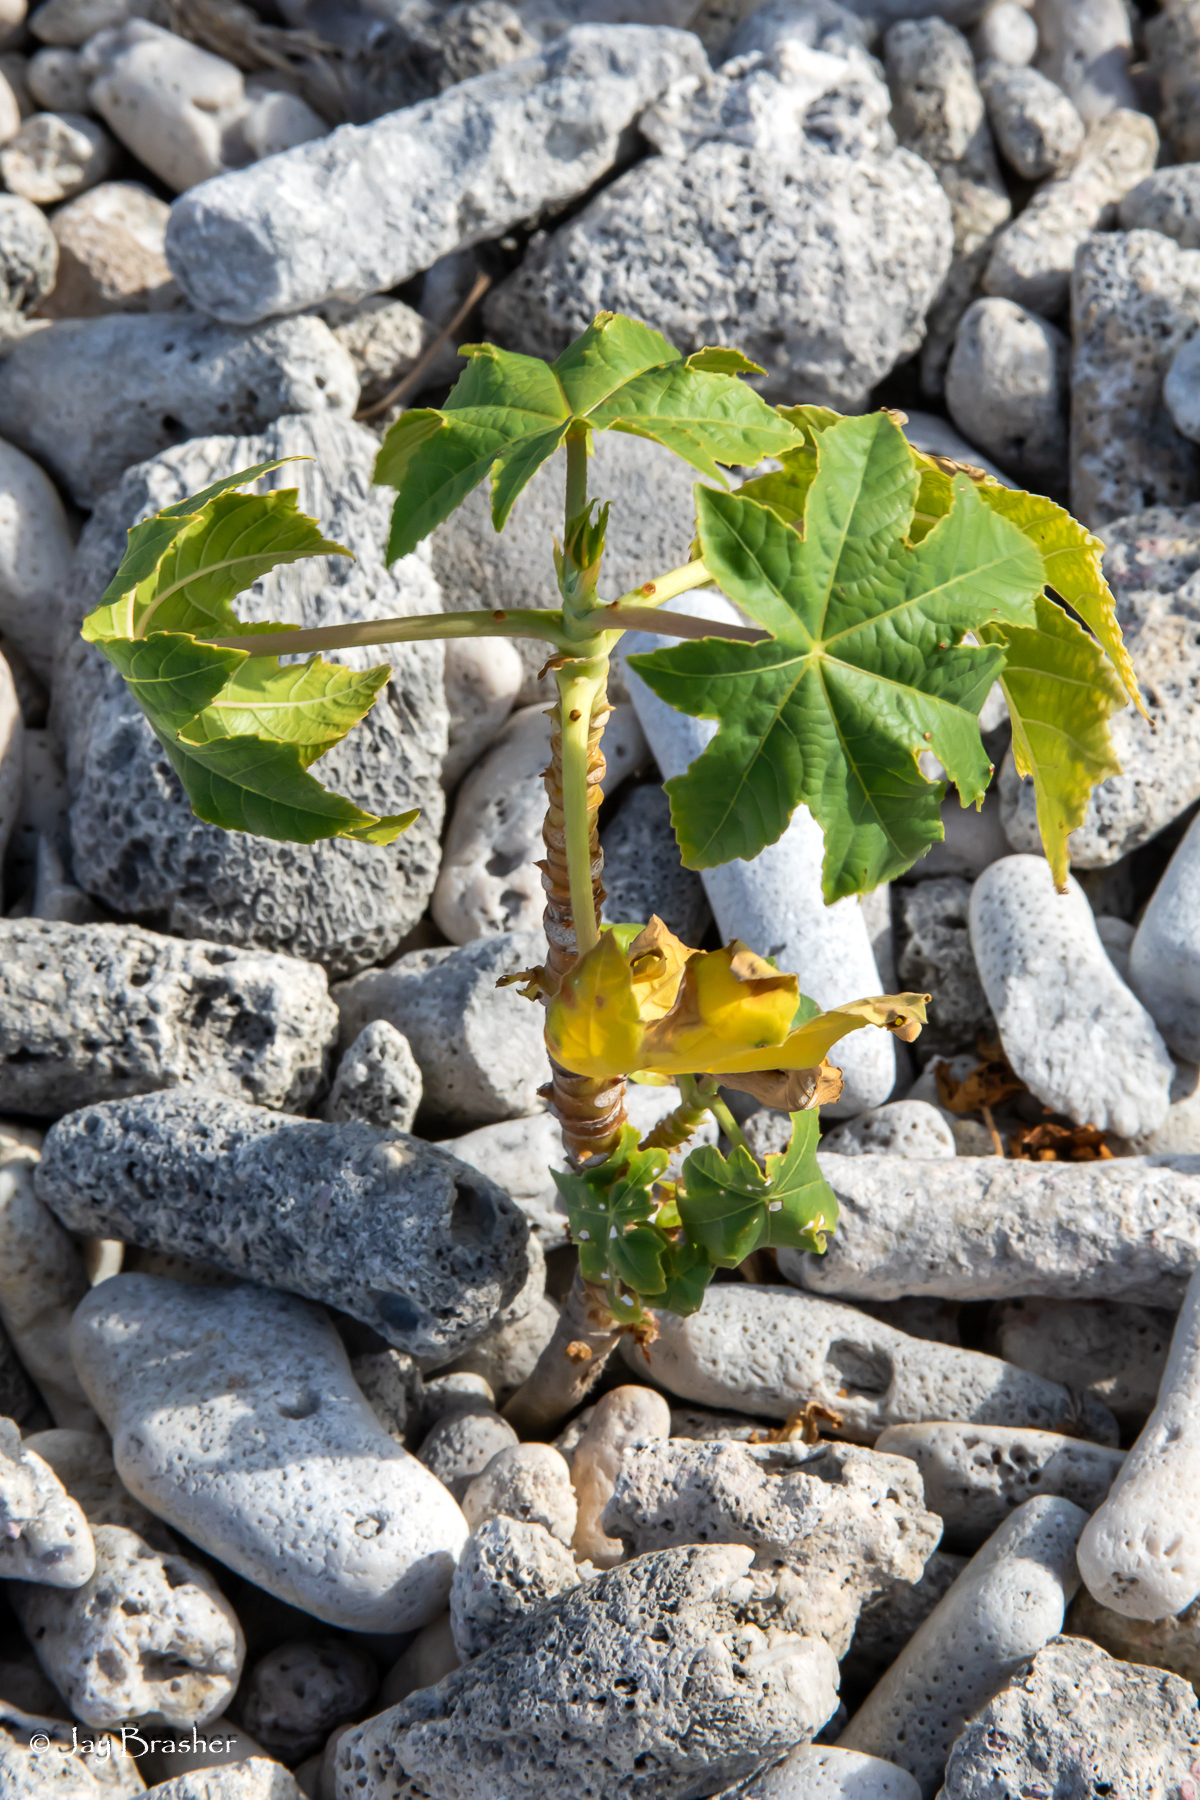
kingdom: Plantae
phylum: Tracheophyta
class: Magnoliopsida
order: Malpighiales
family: Euphorbiaceae
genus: Ricinus
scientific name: Ricinus communis
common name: Castor-oil-plant
